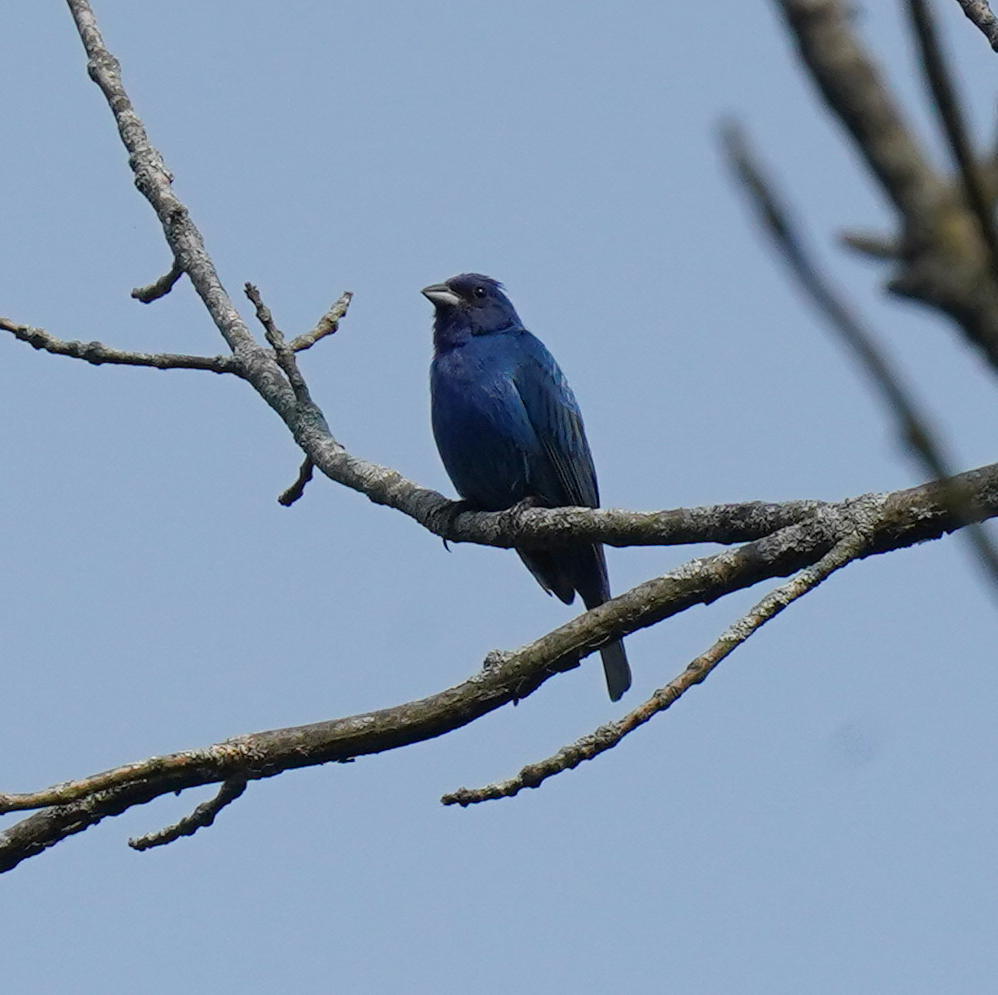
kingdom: Animalia
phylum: Chordata
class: Aves
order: Passeriformes
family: Cardinalidae
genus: Passerina
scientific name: Passerina cyanea
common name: Indigo bunting
